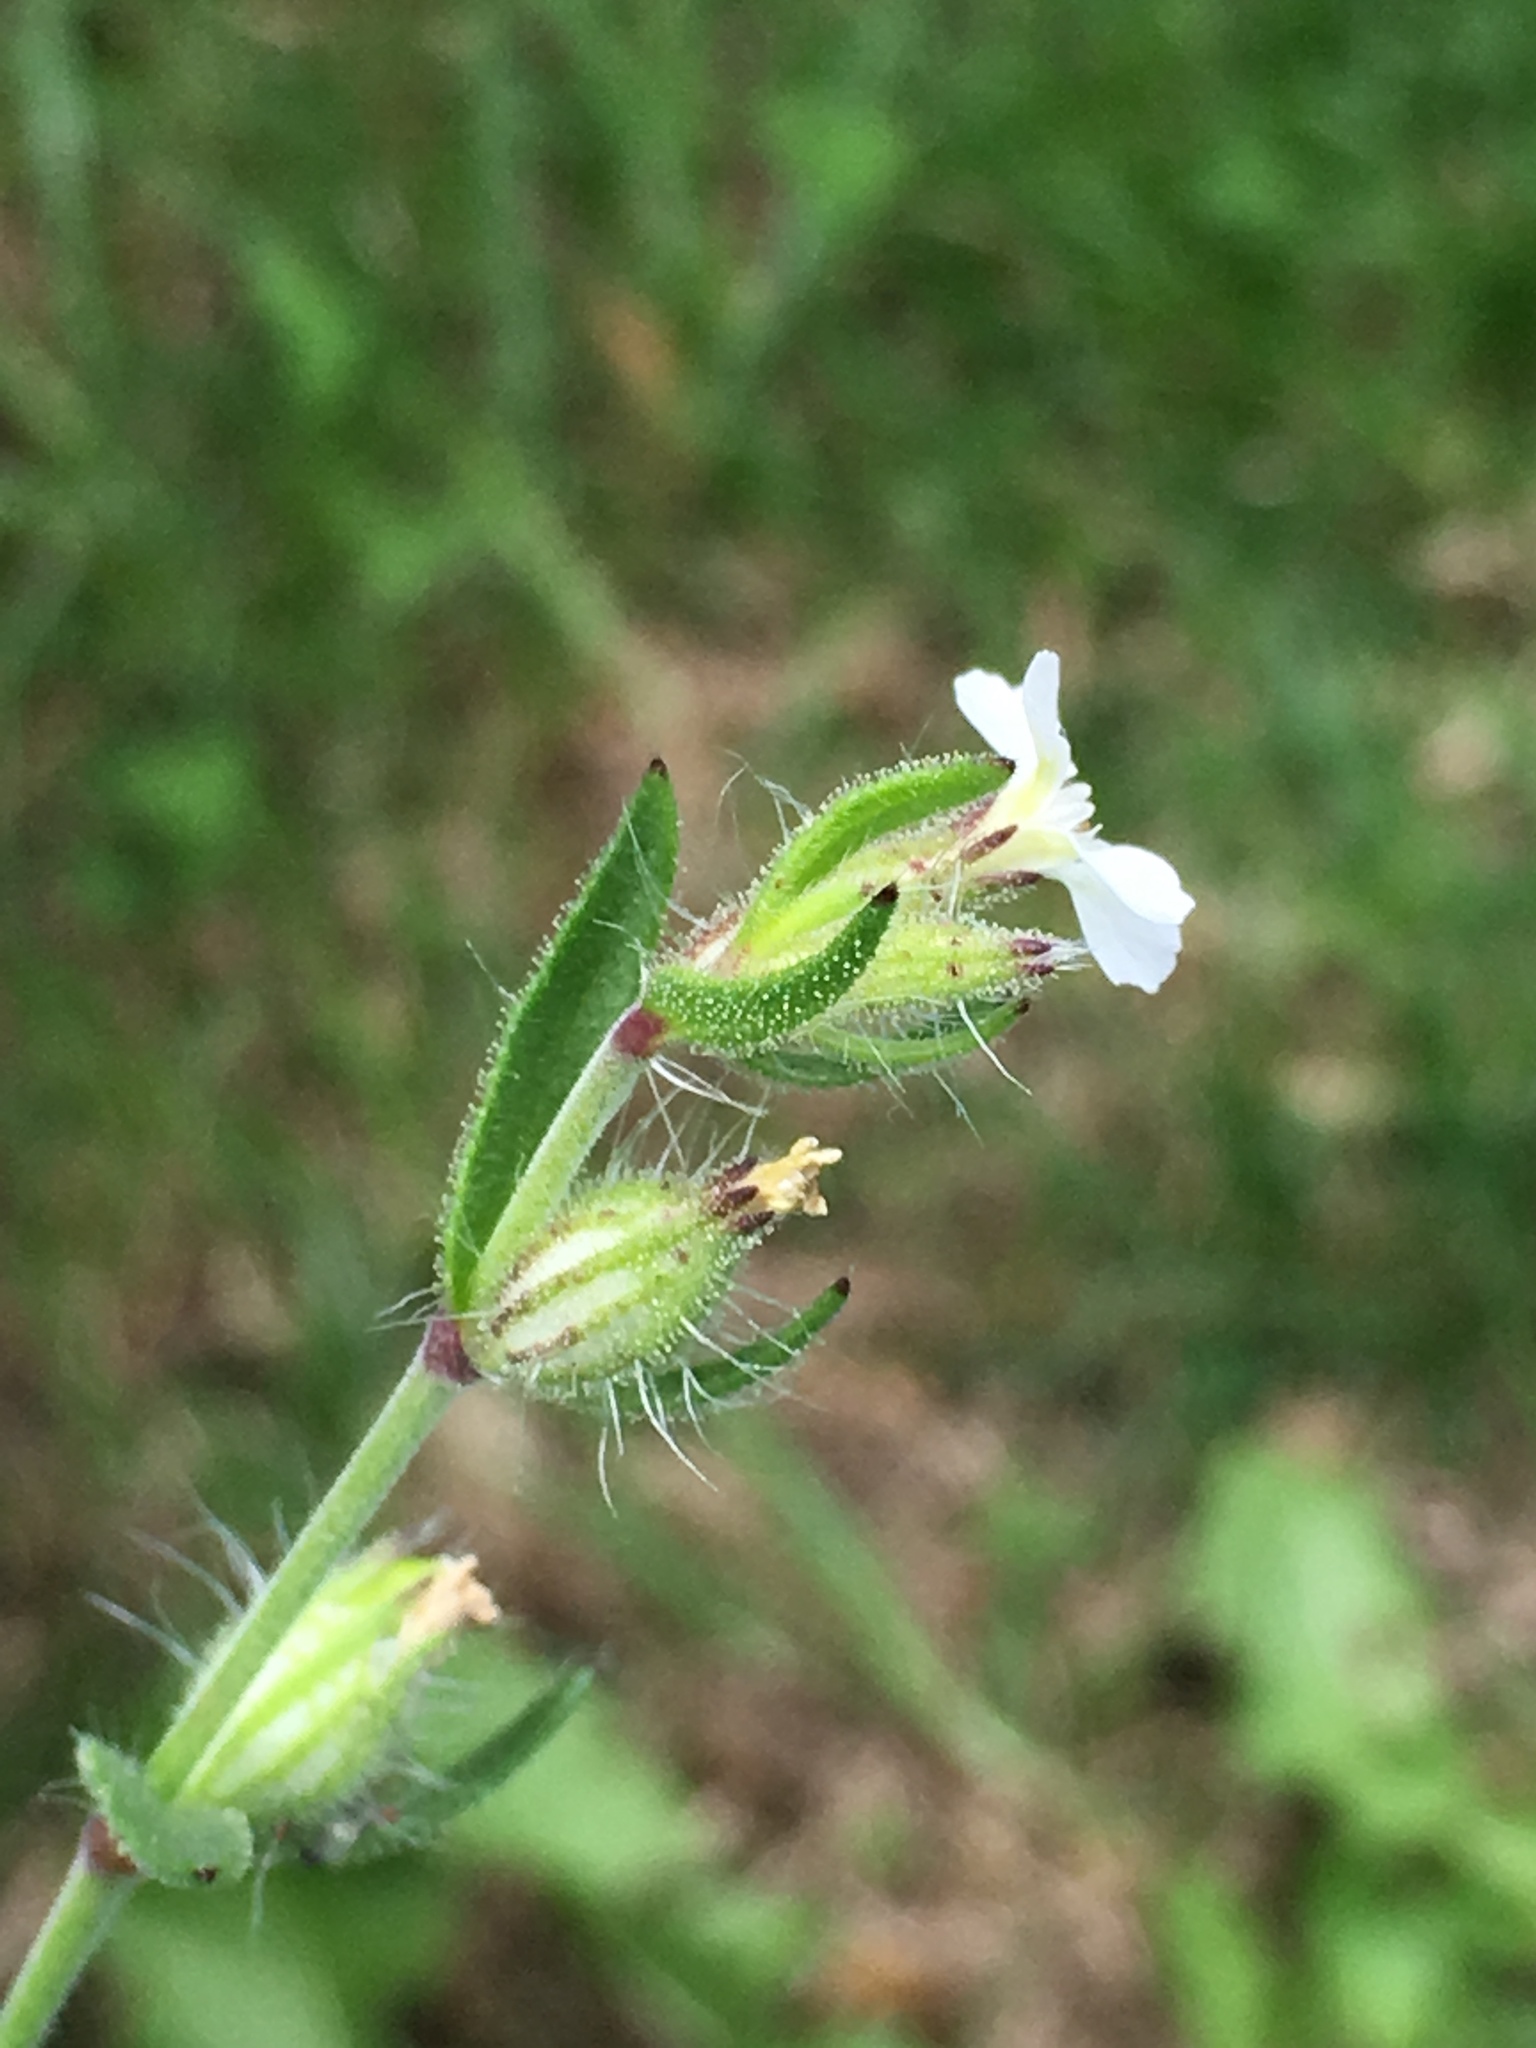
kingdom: Plantae
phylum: Tracheophyta
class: Magnoliopsida
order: Caryophyllales
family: Caryophyllaceae
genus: Silene
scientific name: Silene gallica
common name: Small-flowered catchfly
